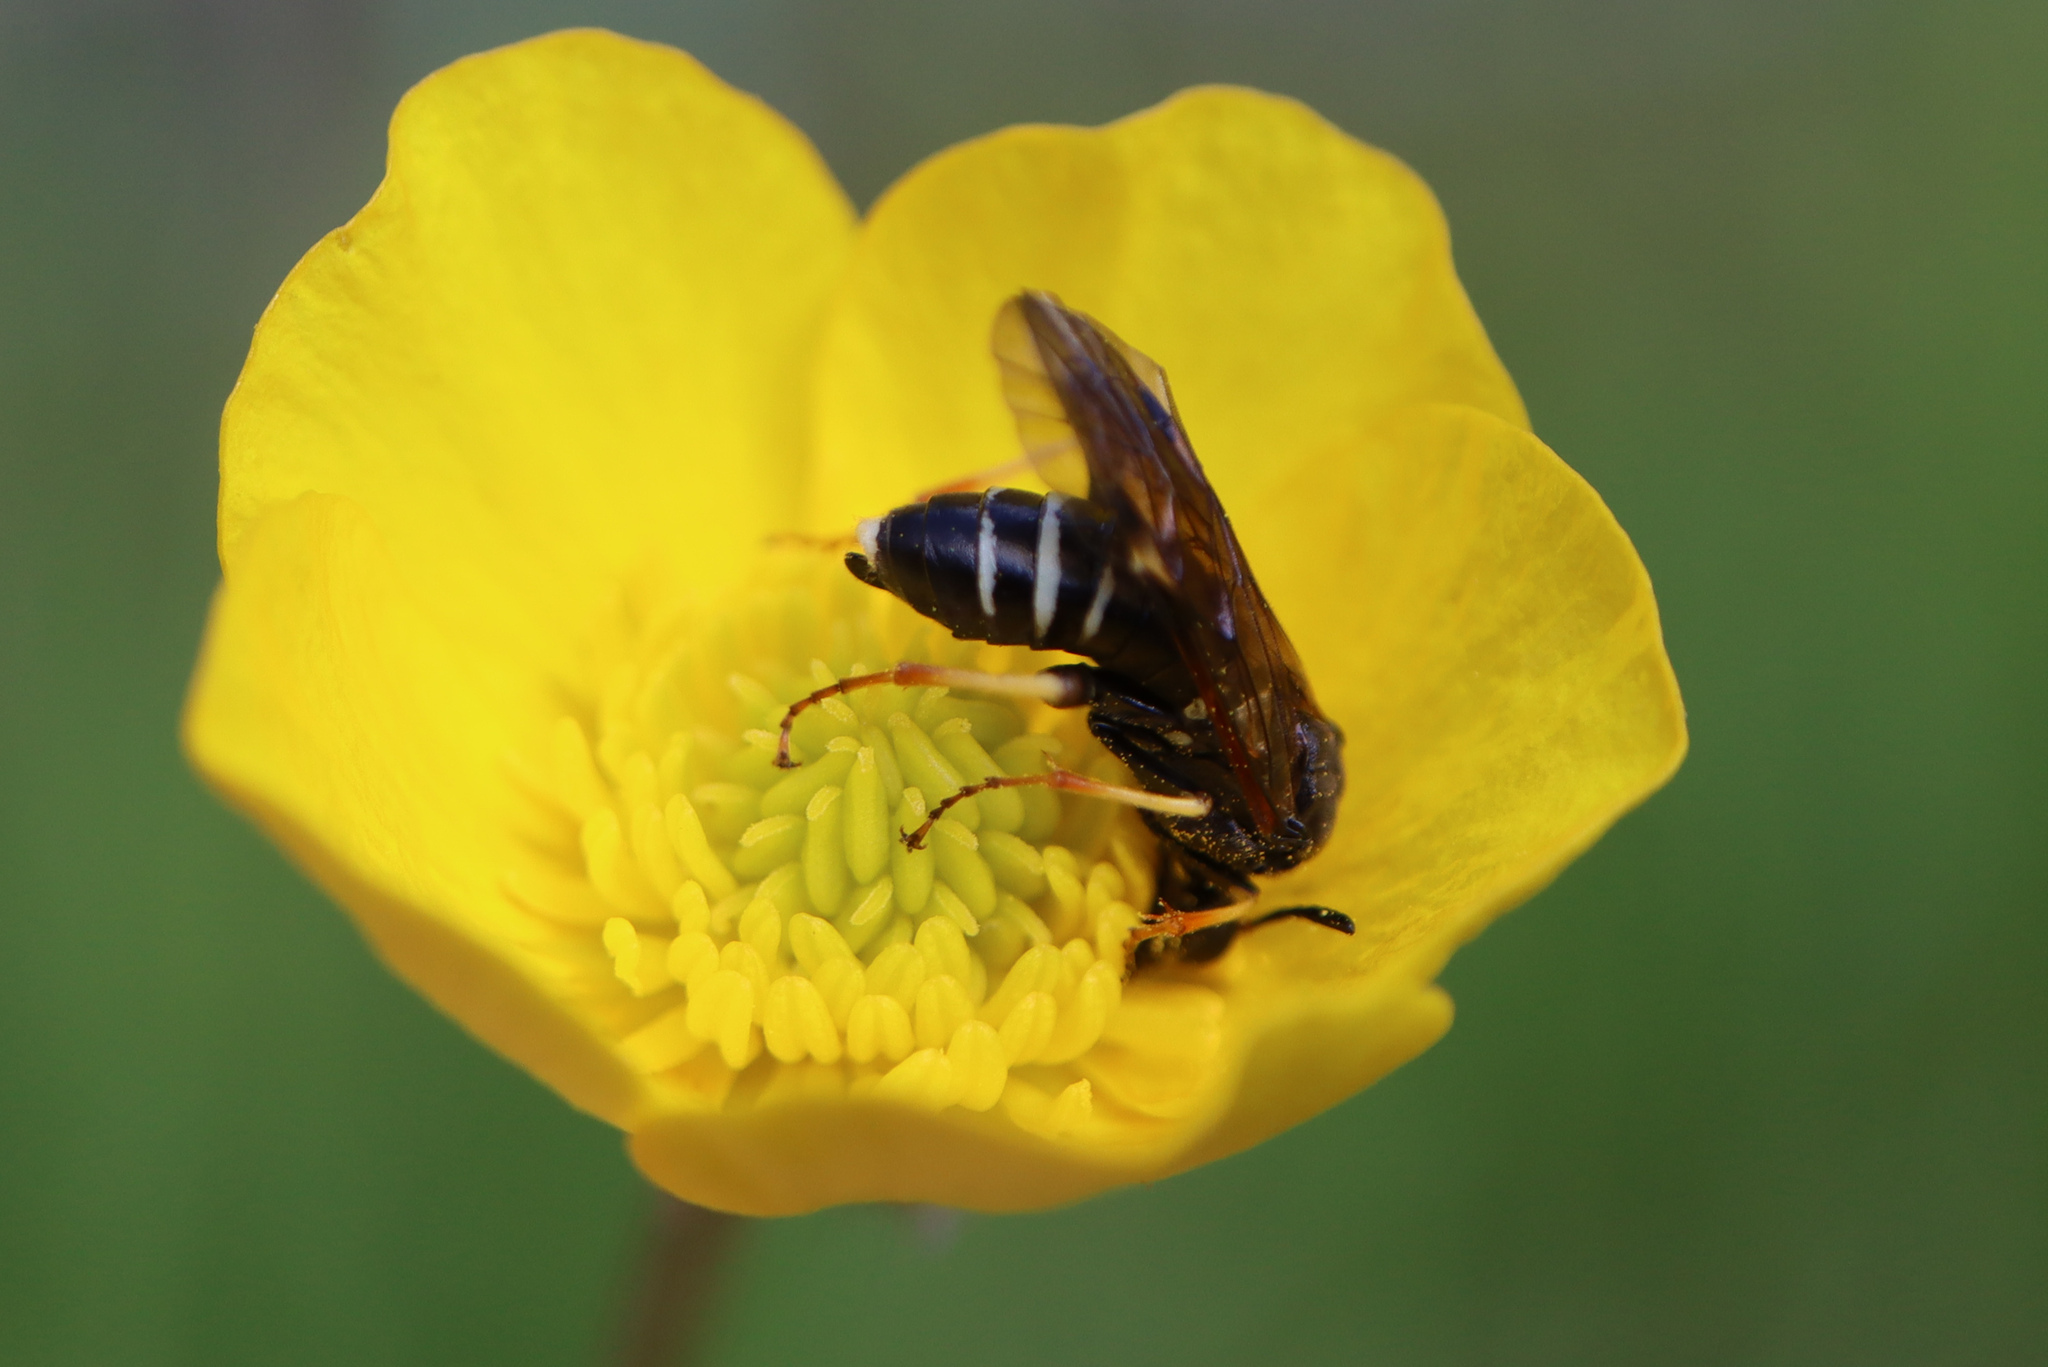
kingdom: Animalia
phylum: Arthropoda
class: Insecta
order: Hymenoptera
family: Tenthredinidae
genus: Tenthredo
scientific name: Tenthredo koehleri
